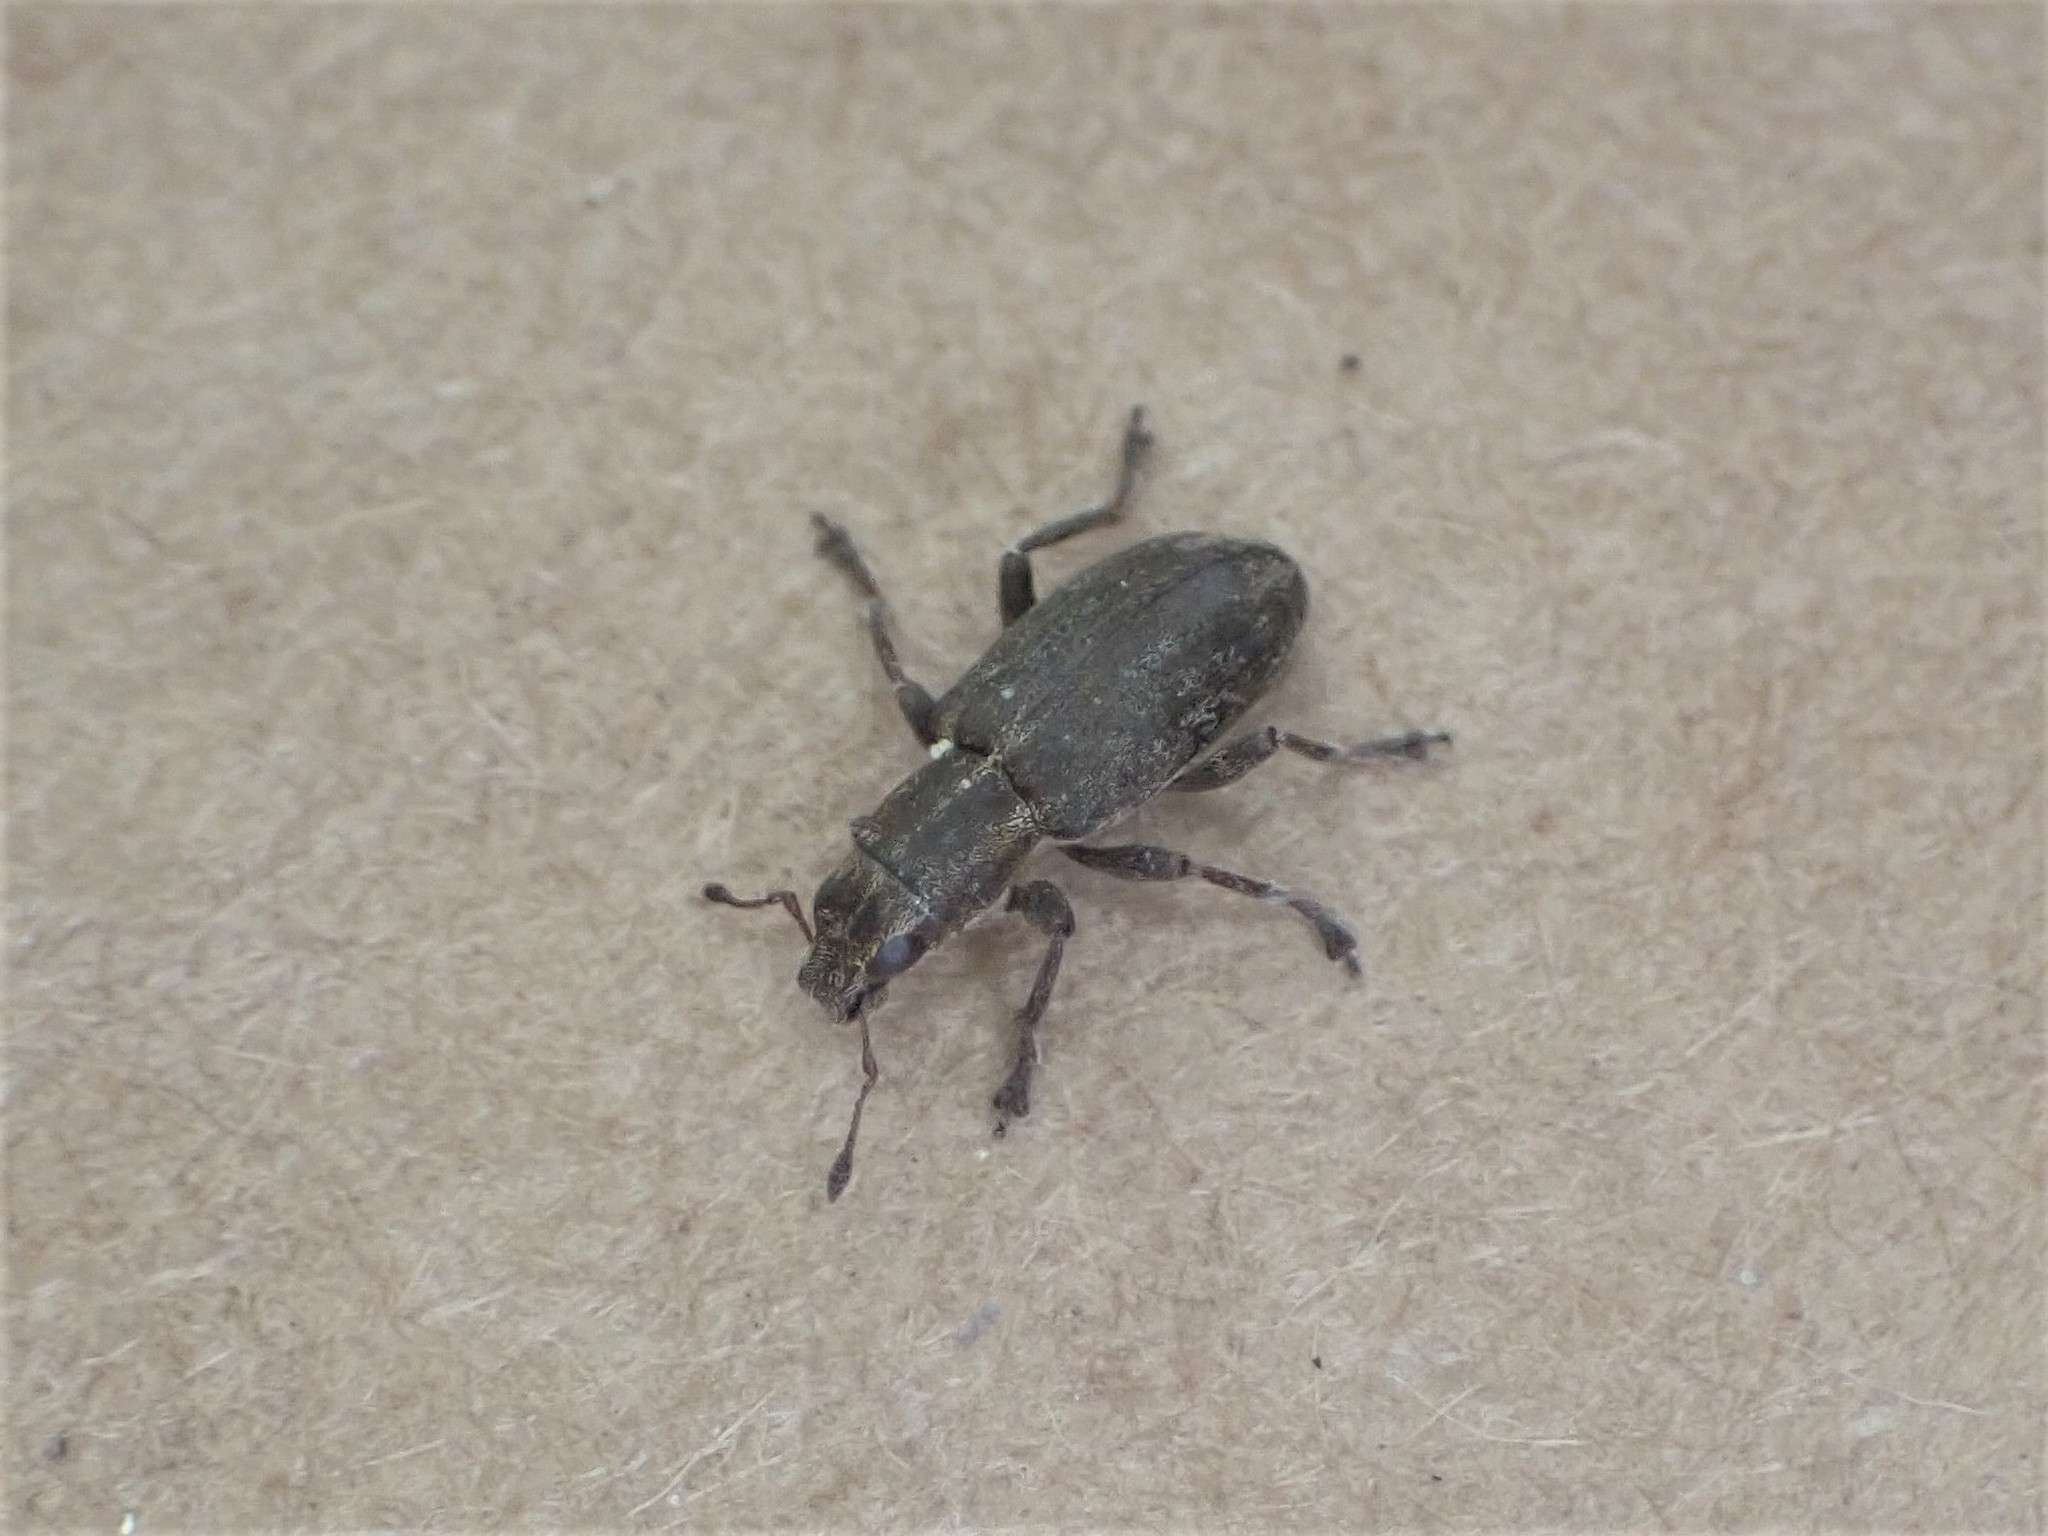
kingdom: Animalia
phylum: Arthropoda
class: Insecta
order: Coleoptera
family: Curculionidae
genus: Sitona
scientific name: Sitona obsoletus
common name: Weevil
